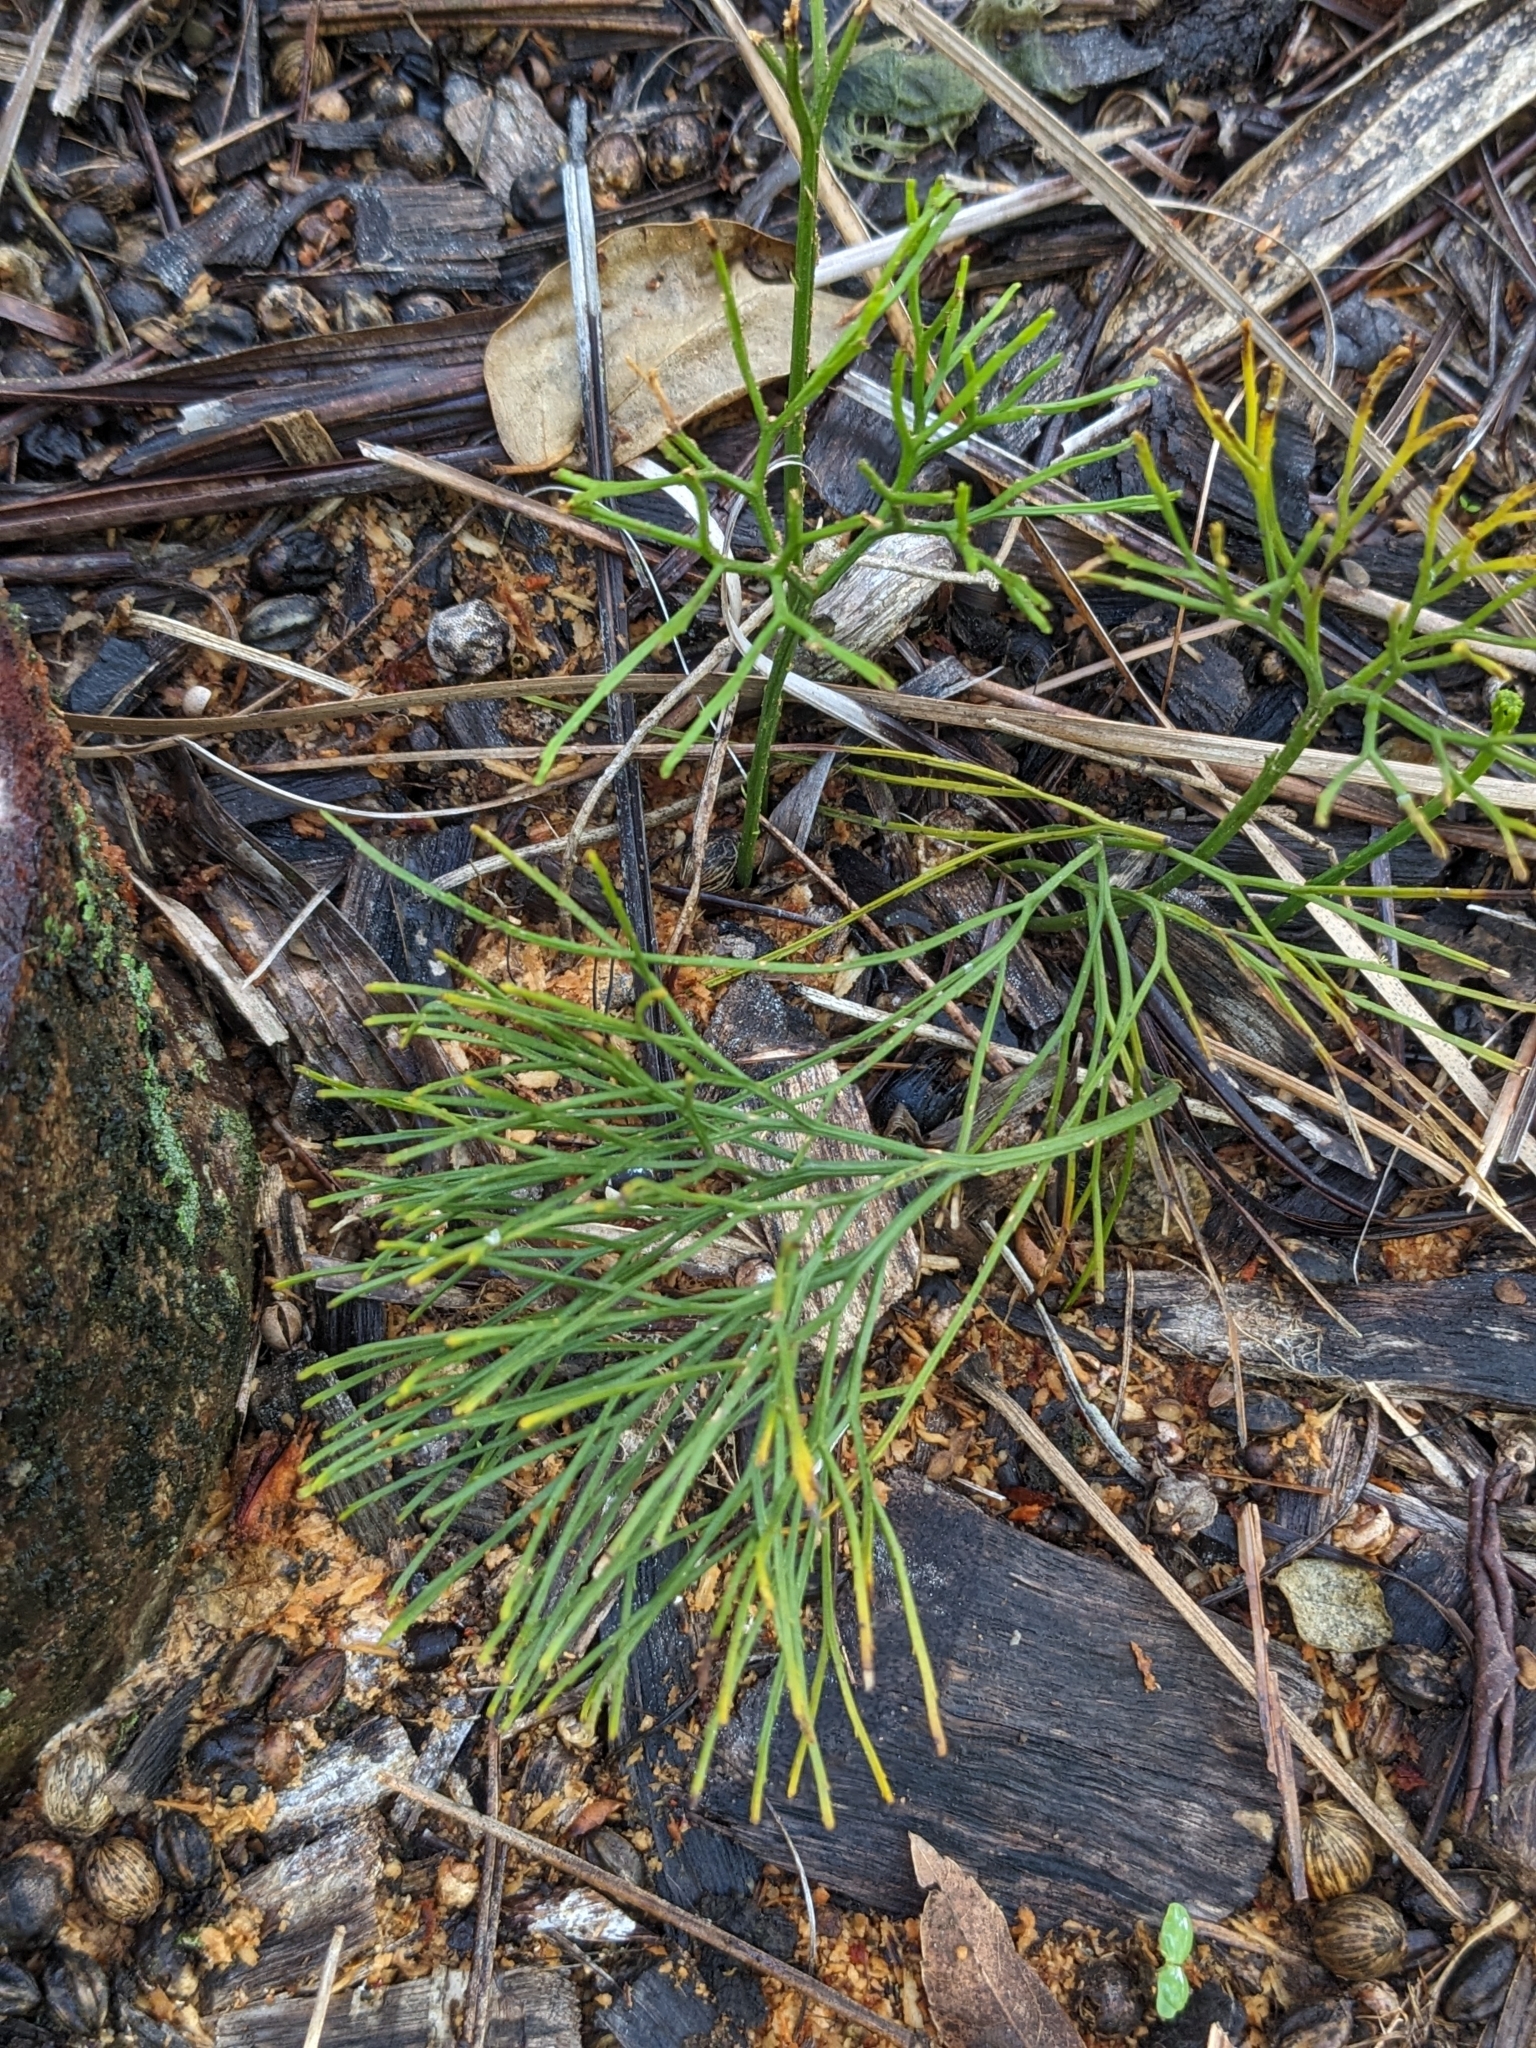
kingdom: Plantae
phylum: Tracheophyta
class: Polypodiopsida
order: Psilotales
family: Psilotaceae
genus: Psilotum
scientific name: Psilotum nudum
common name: Skeleton fork fern
